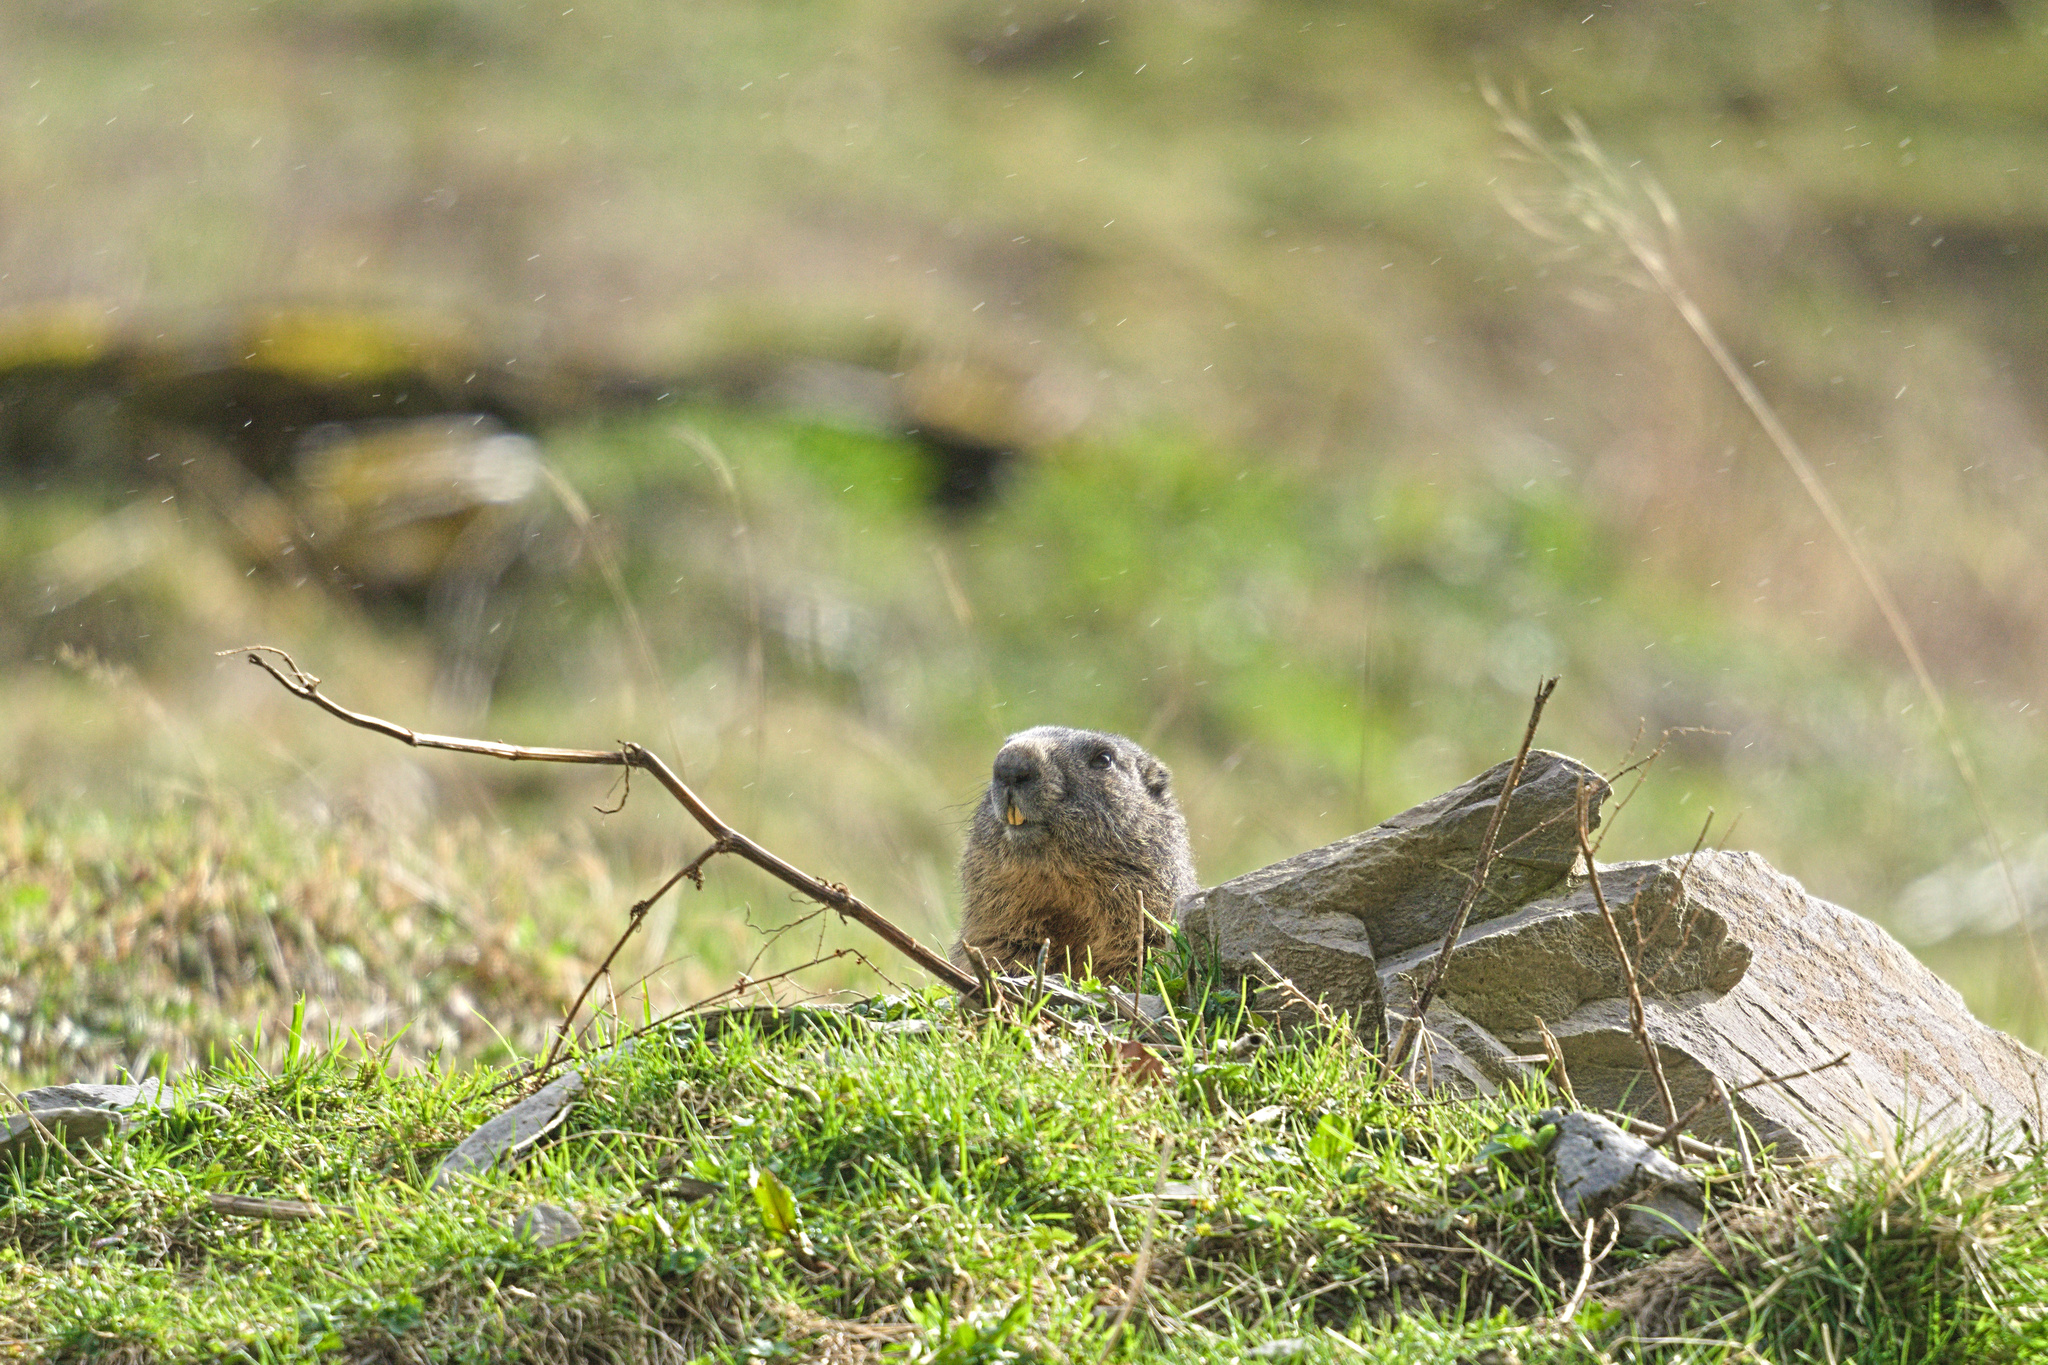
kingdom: Animalia
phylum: Chordata
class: Mammalia
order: Rodentia
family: Sciuridae
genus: Marmota
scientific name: Marmota marmota
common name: Alpine marmot
